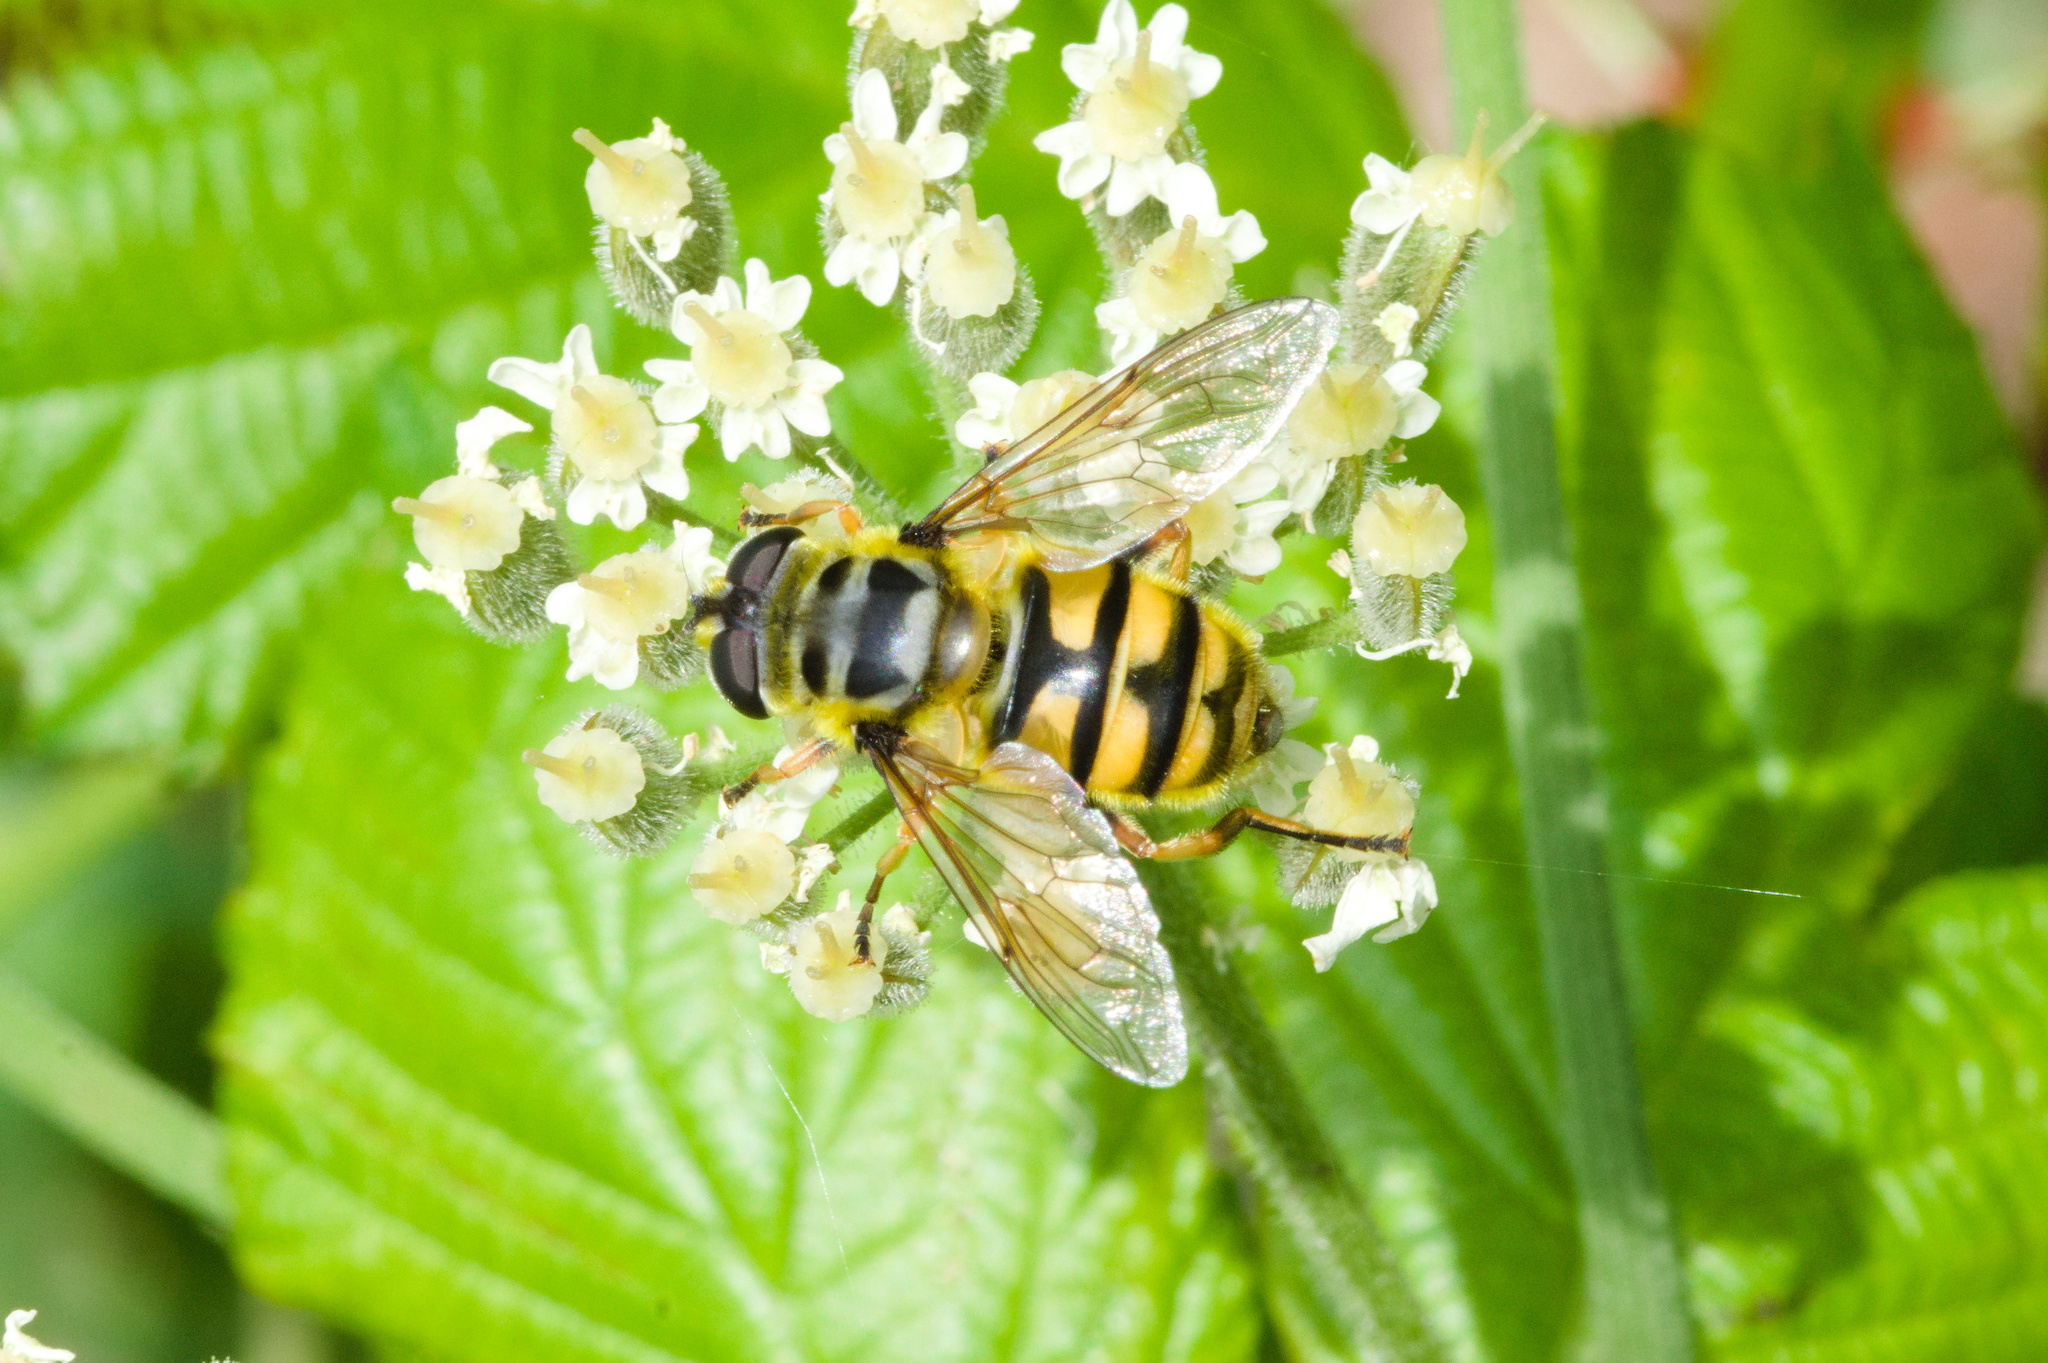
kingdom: Animalia
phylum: Arthropoda
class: Insecta
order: Diptera
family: Syrphidae
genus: Myathropa
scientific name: Myathropa florea
